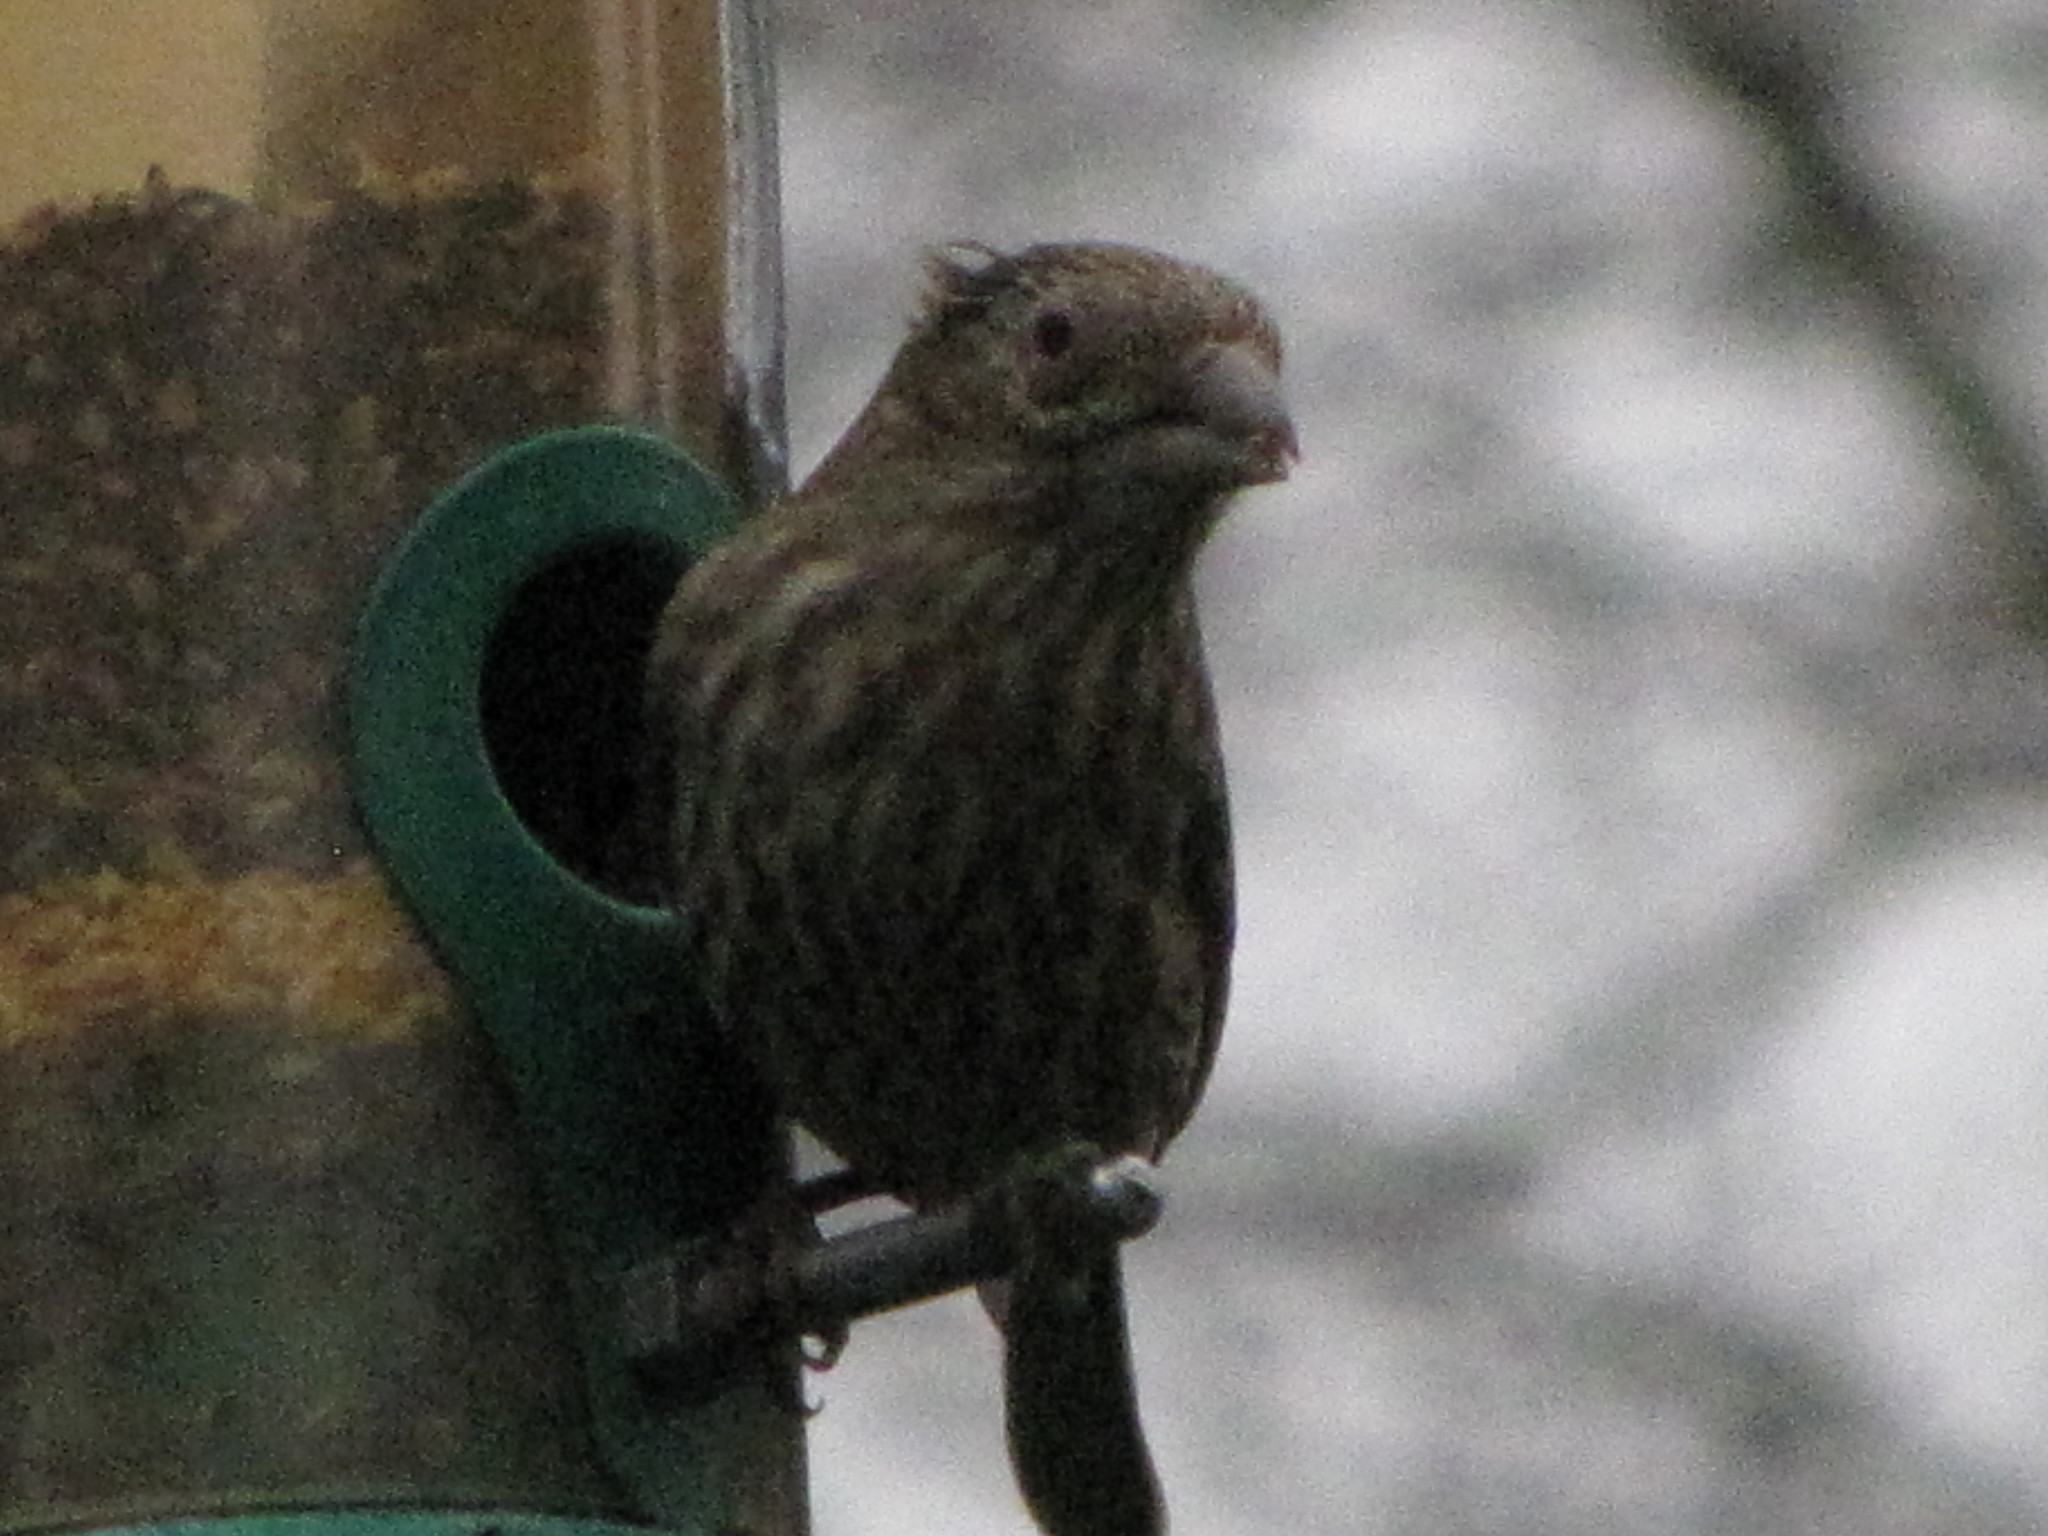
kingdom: Animalia
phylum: Chordata
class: Aves
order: Passeriformes
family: Fringillidae
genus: Haemorhous
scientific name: Haemorhous mexicanus
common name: House finch
